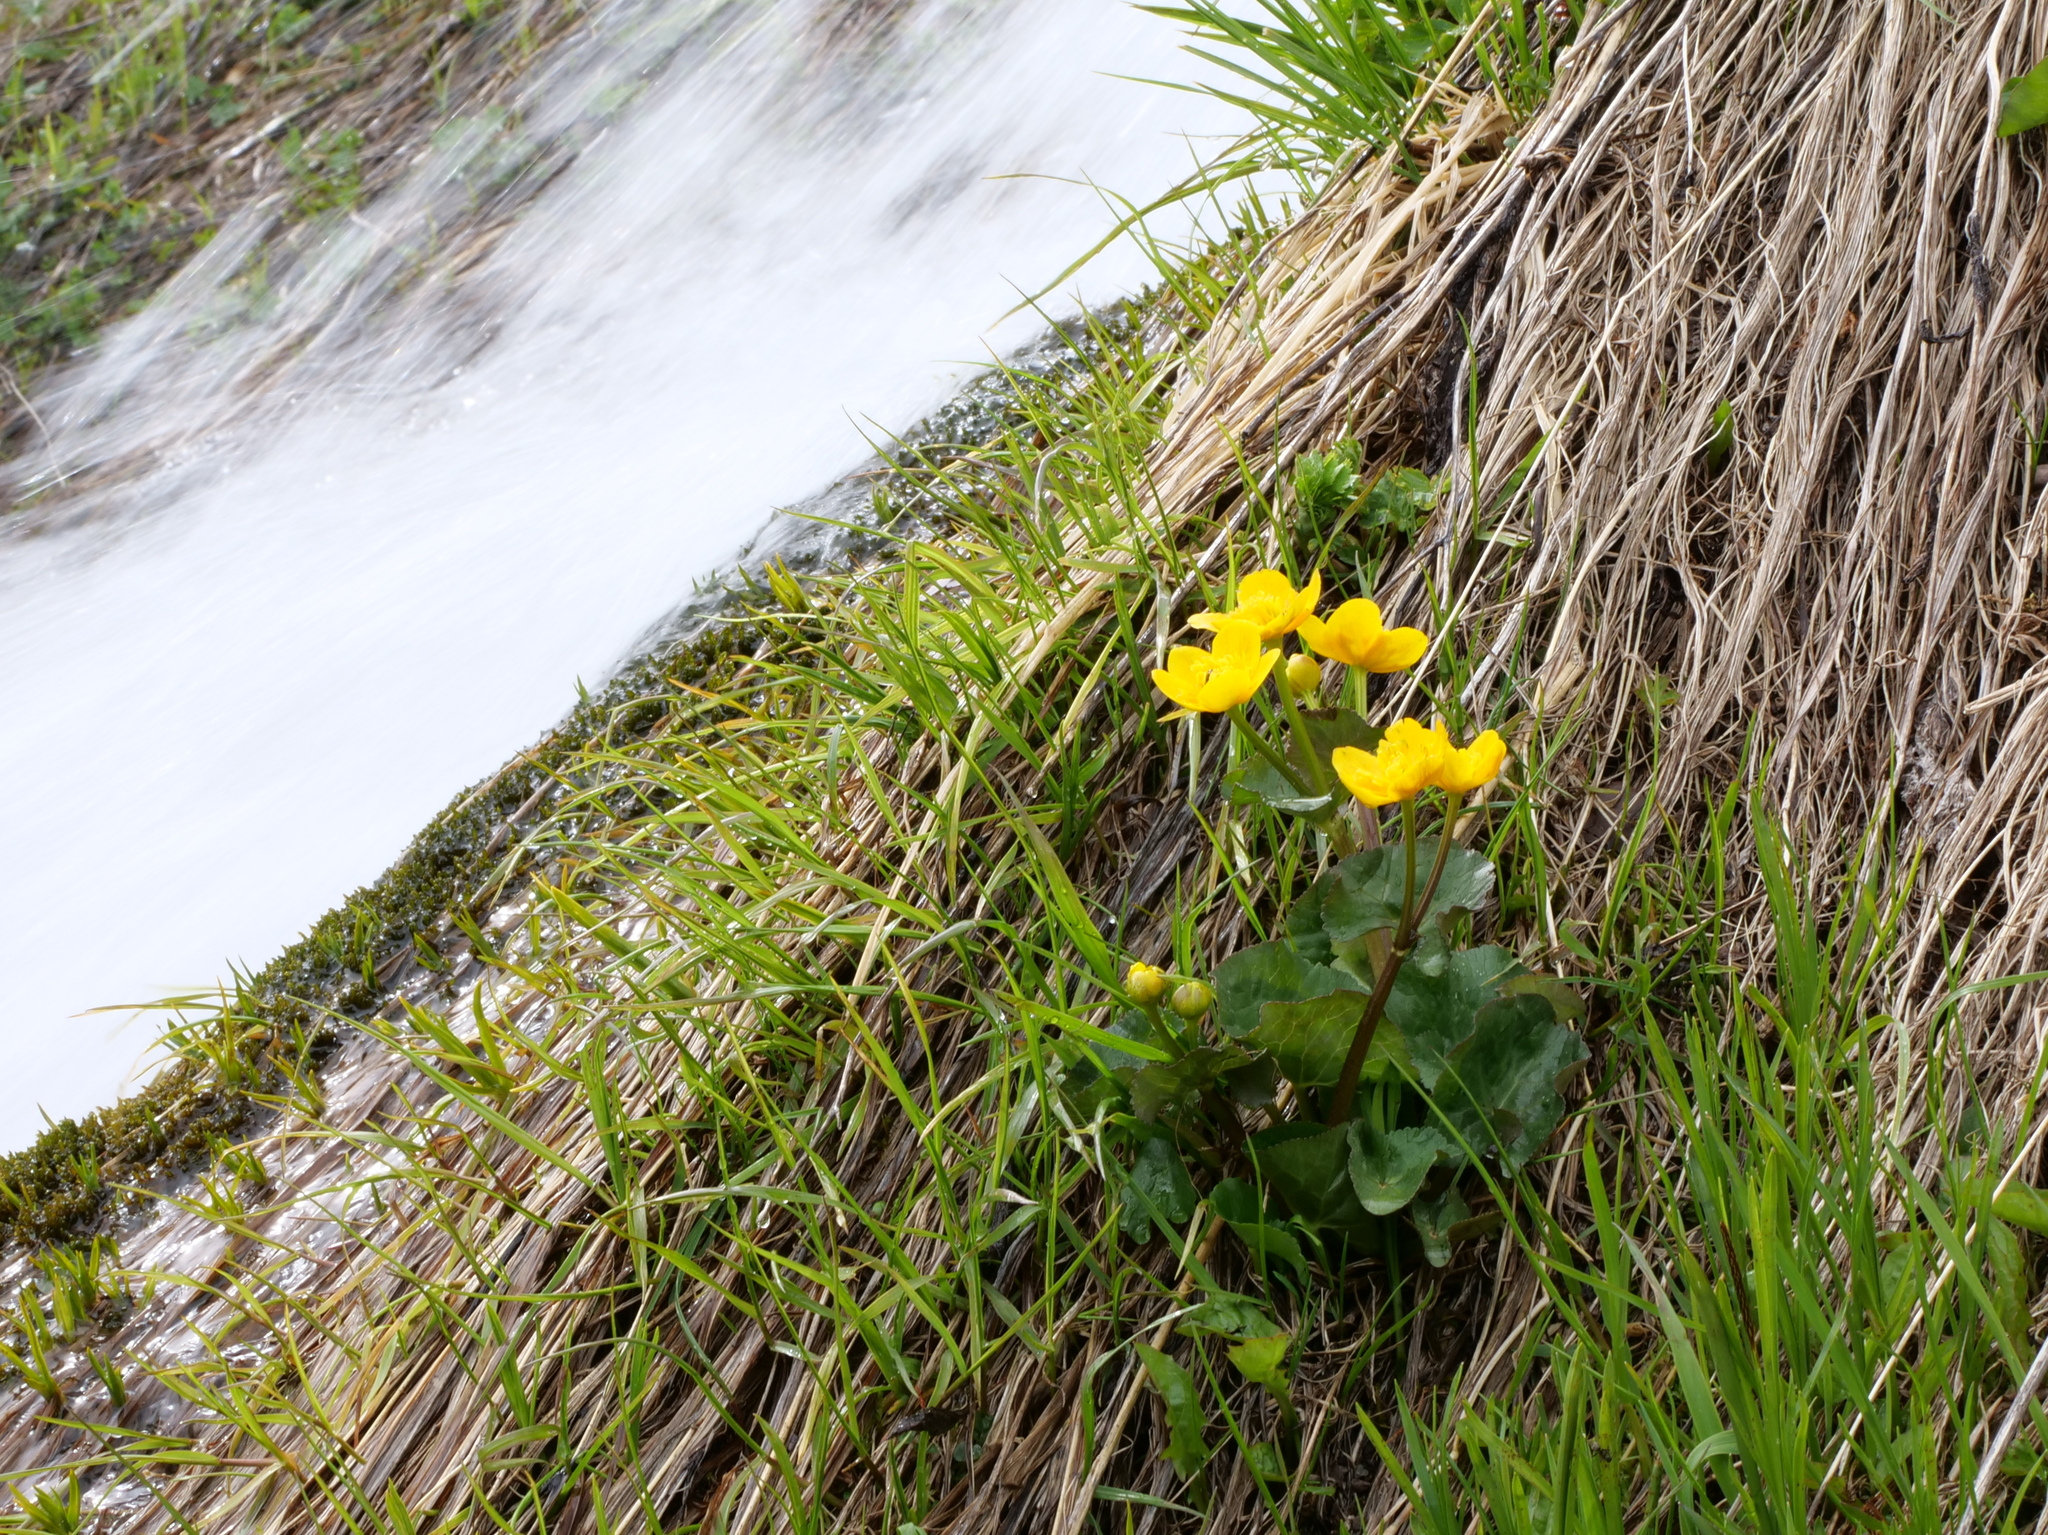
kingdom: Plantae
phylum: Tracheophyta
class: Magnoliopsida
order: Ranunculales
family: Ranunculaceae
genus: Caltha
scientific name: Caltha palustris
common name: Marsh marigold
